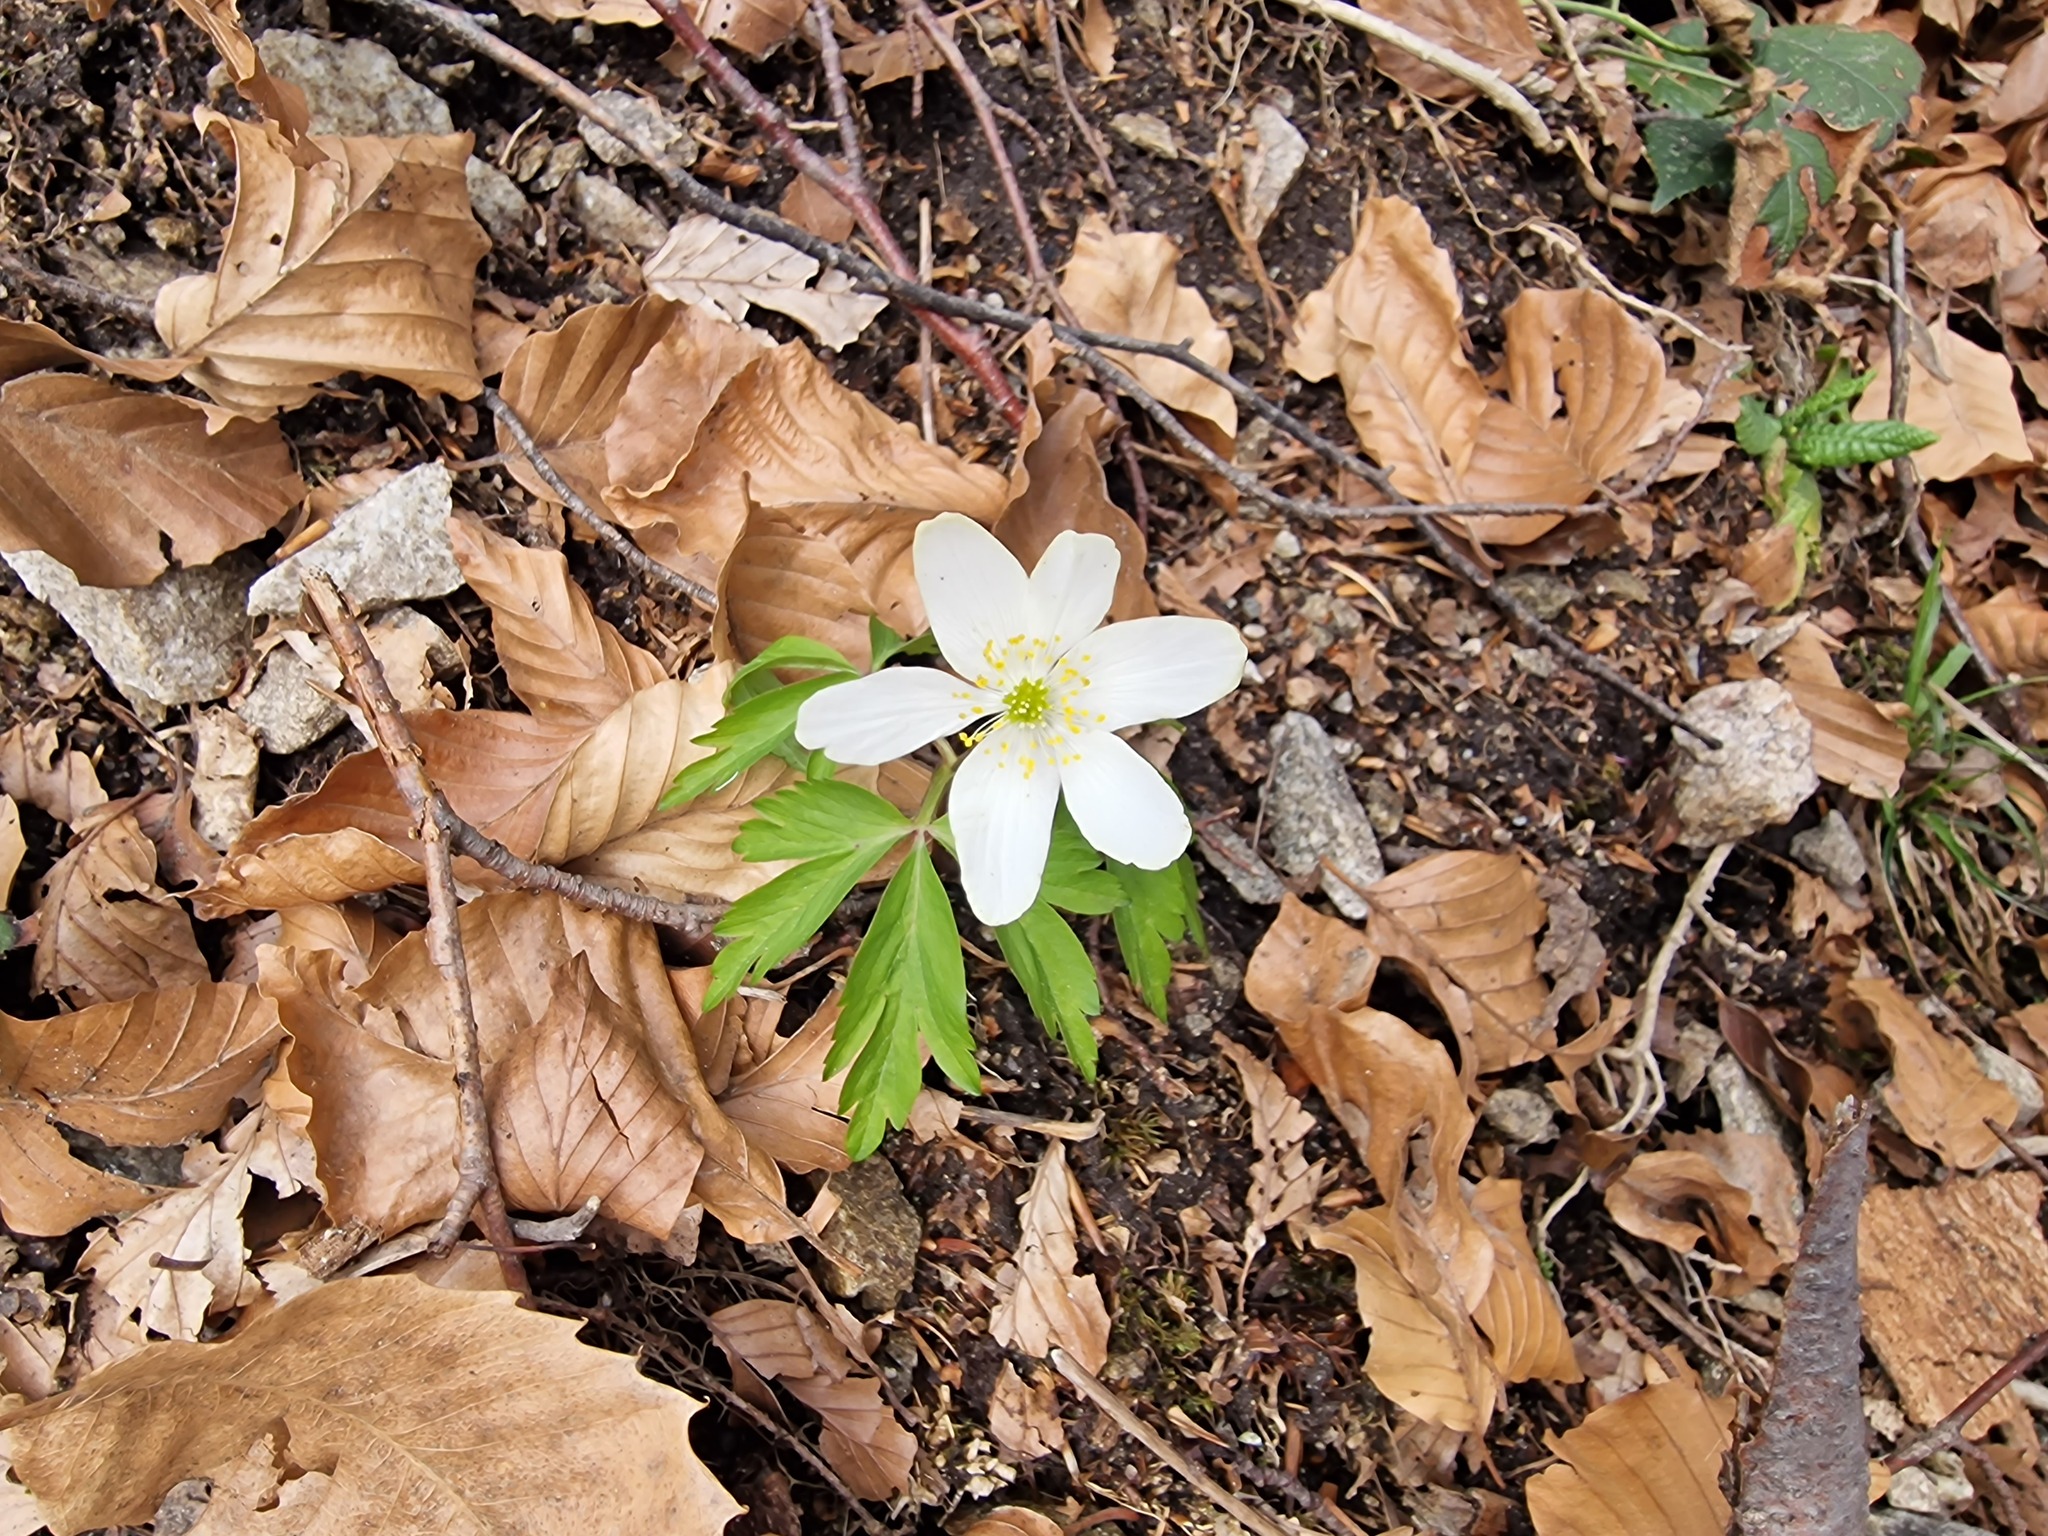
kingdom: Plantae
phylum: Tracheophyta
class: Magnoliopsida
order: Ranunculales
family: Ranunculaceae
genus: Anemone
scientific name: Anemone nemorosa
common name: Wood anemone
